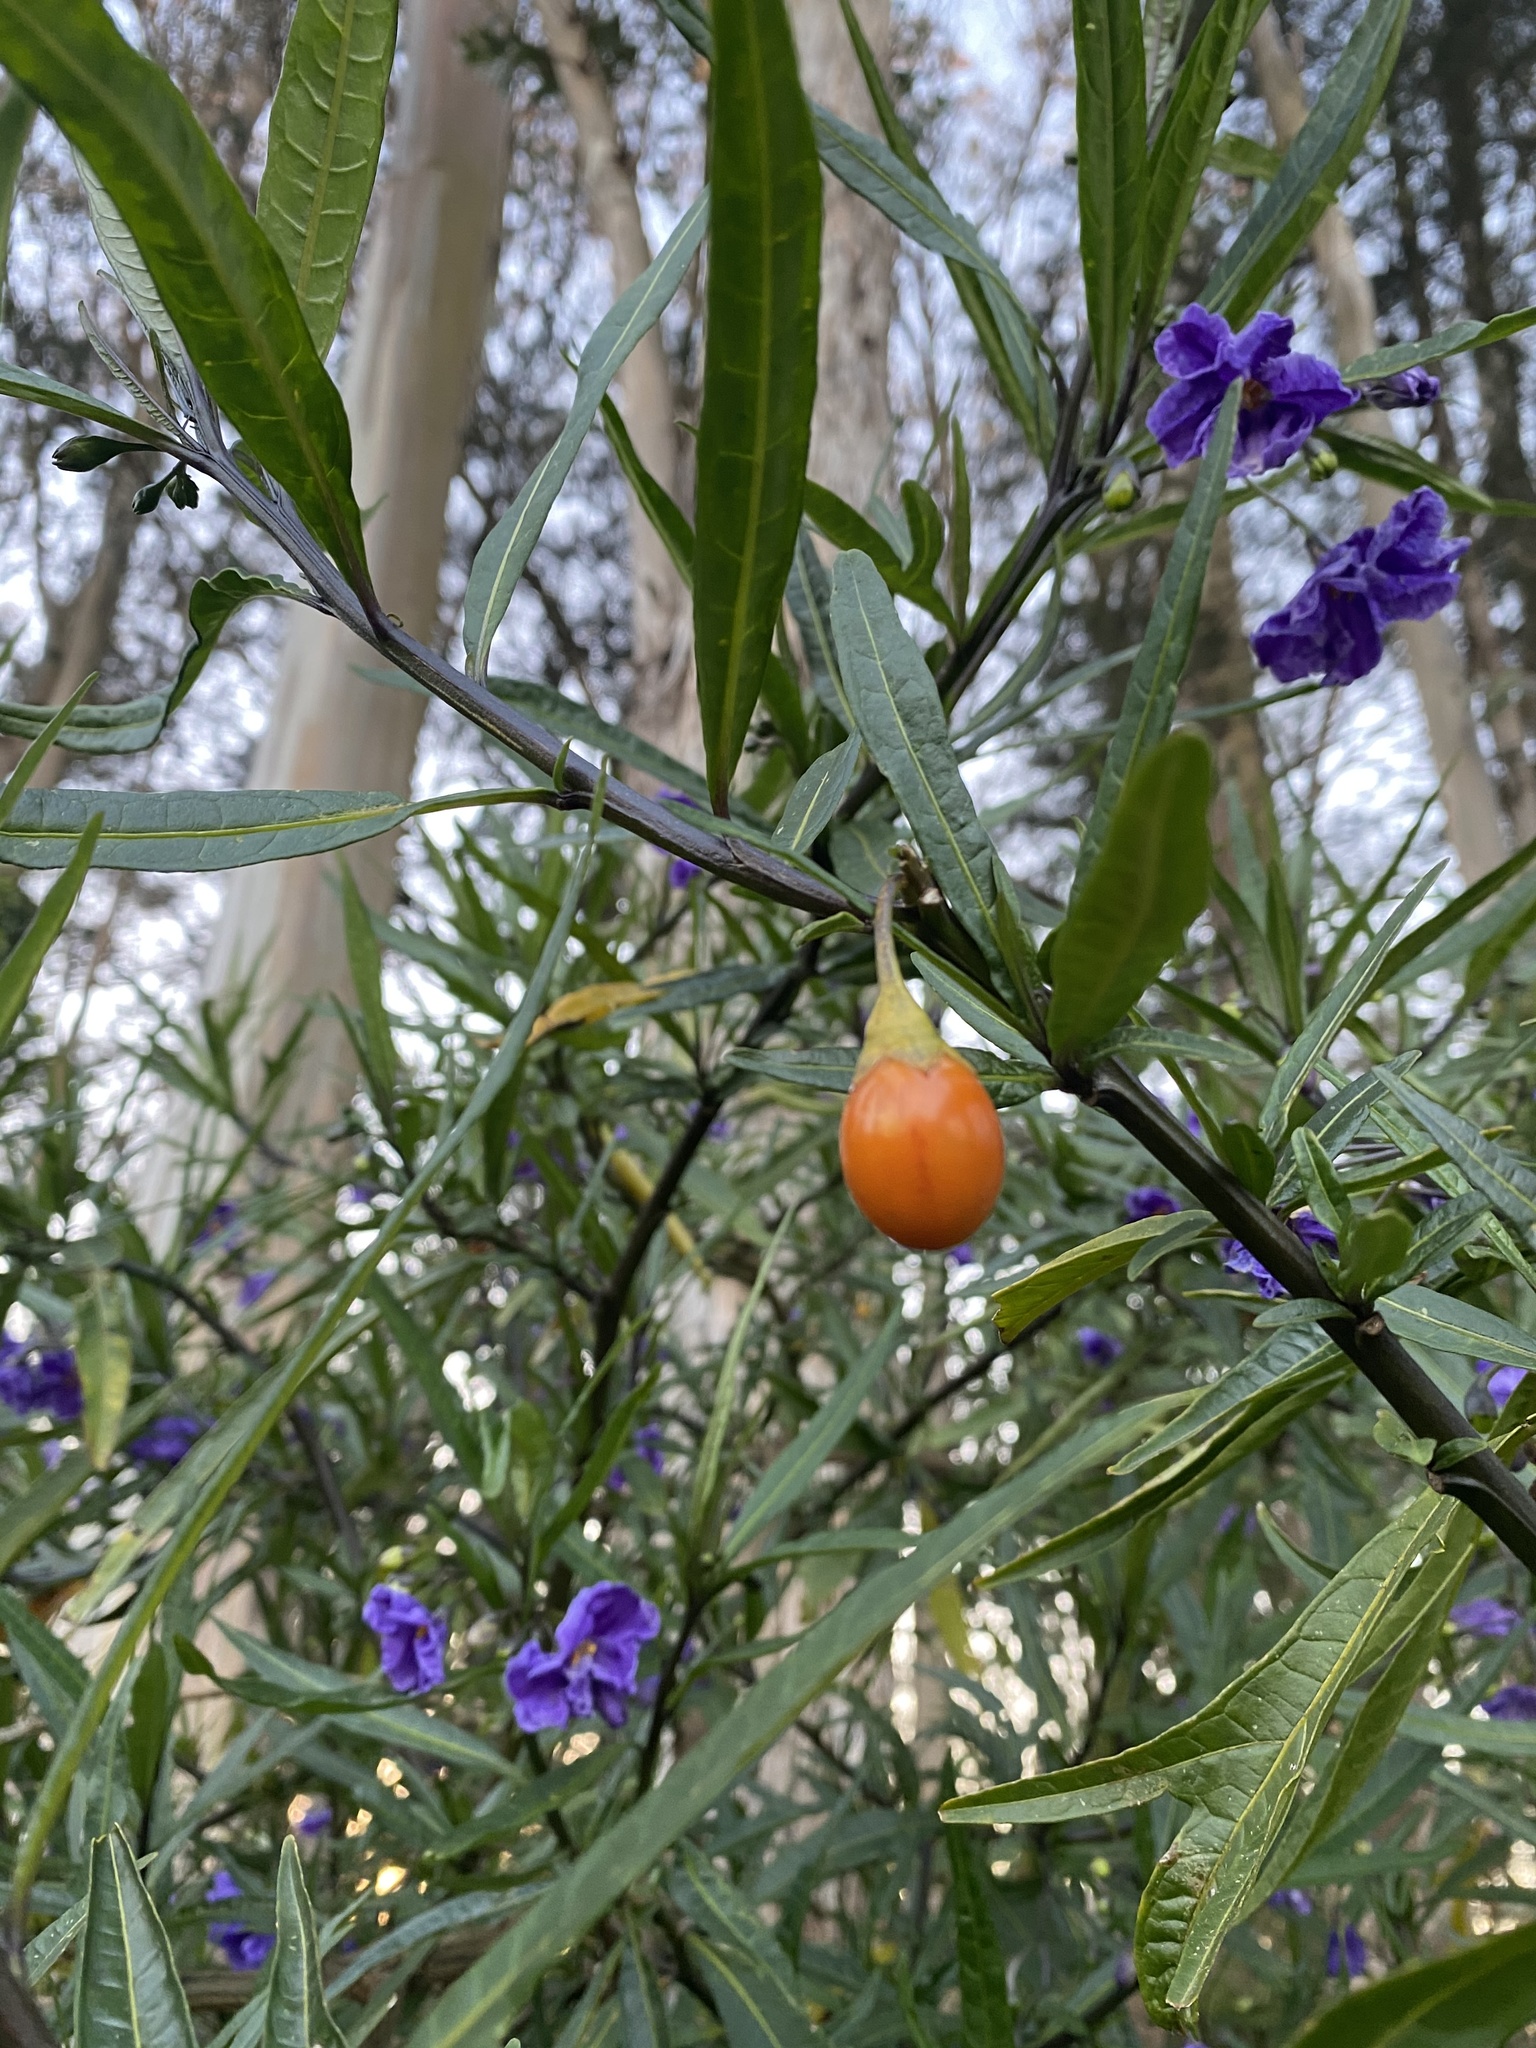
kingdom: Plantae
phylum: Tracheophyta
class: Magnoliopsida
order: Solanales
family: Solanaceae
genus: Solanum
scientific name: Solanum laciniatum
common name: Kangaroo-apple
